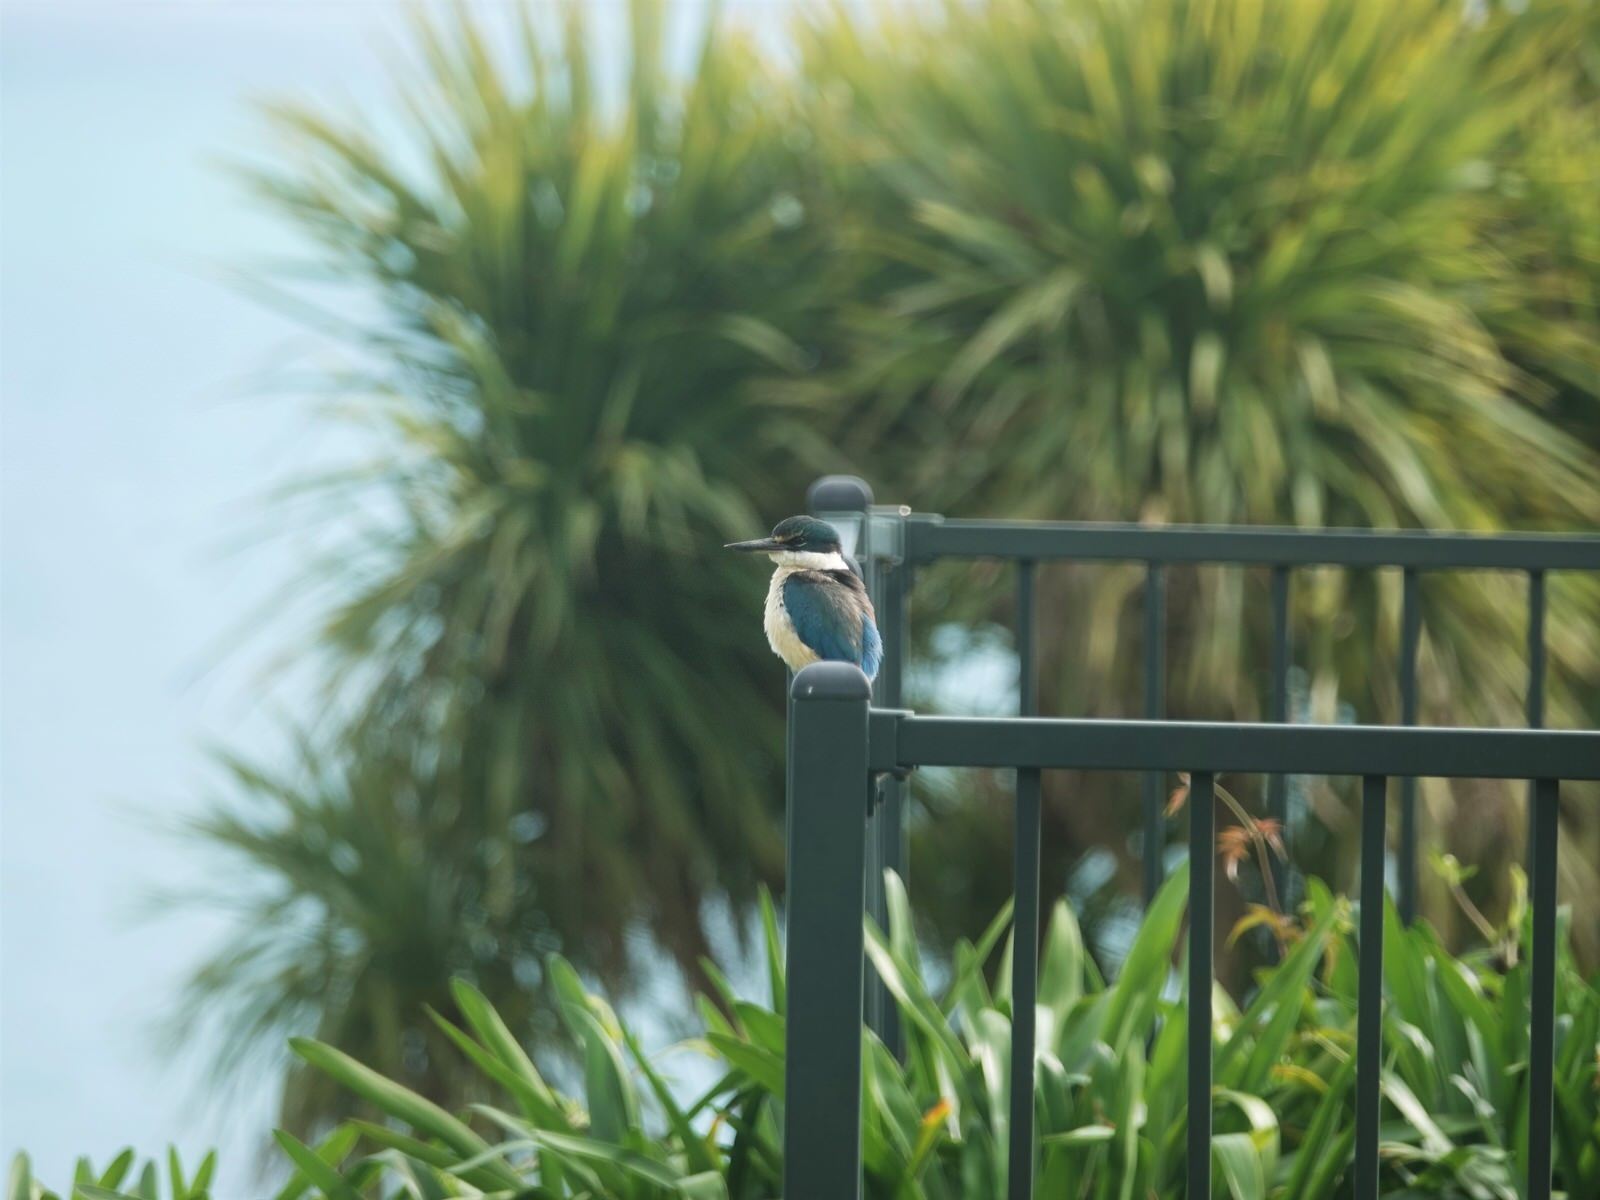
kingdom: Animalia
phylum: Chordata
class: Aves
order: Coraciiformes
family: Alcedinidae
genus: Todiramphus
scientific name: Todiramphus sanctus
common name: Sacred kingfisher
